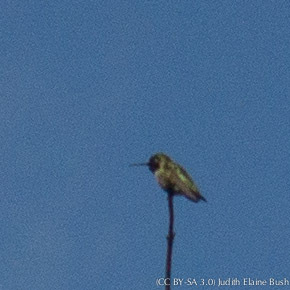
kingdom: Animalia
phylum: Chordata
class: Aves
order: Apodiformes
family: Trochilidae
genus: Calypte
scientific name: Calypte anna
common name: Anna's hummingbird
